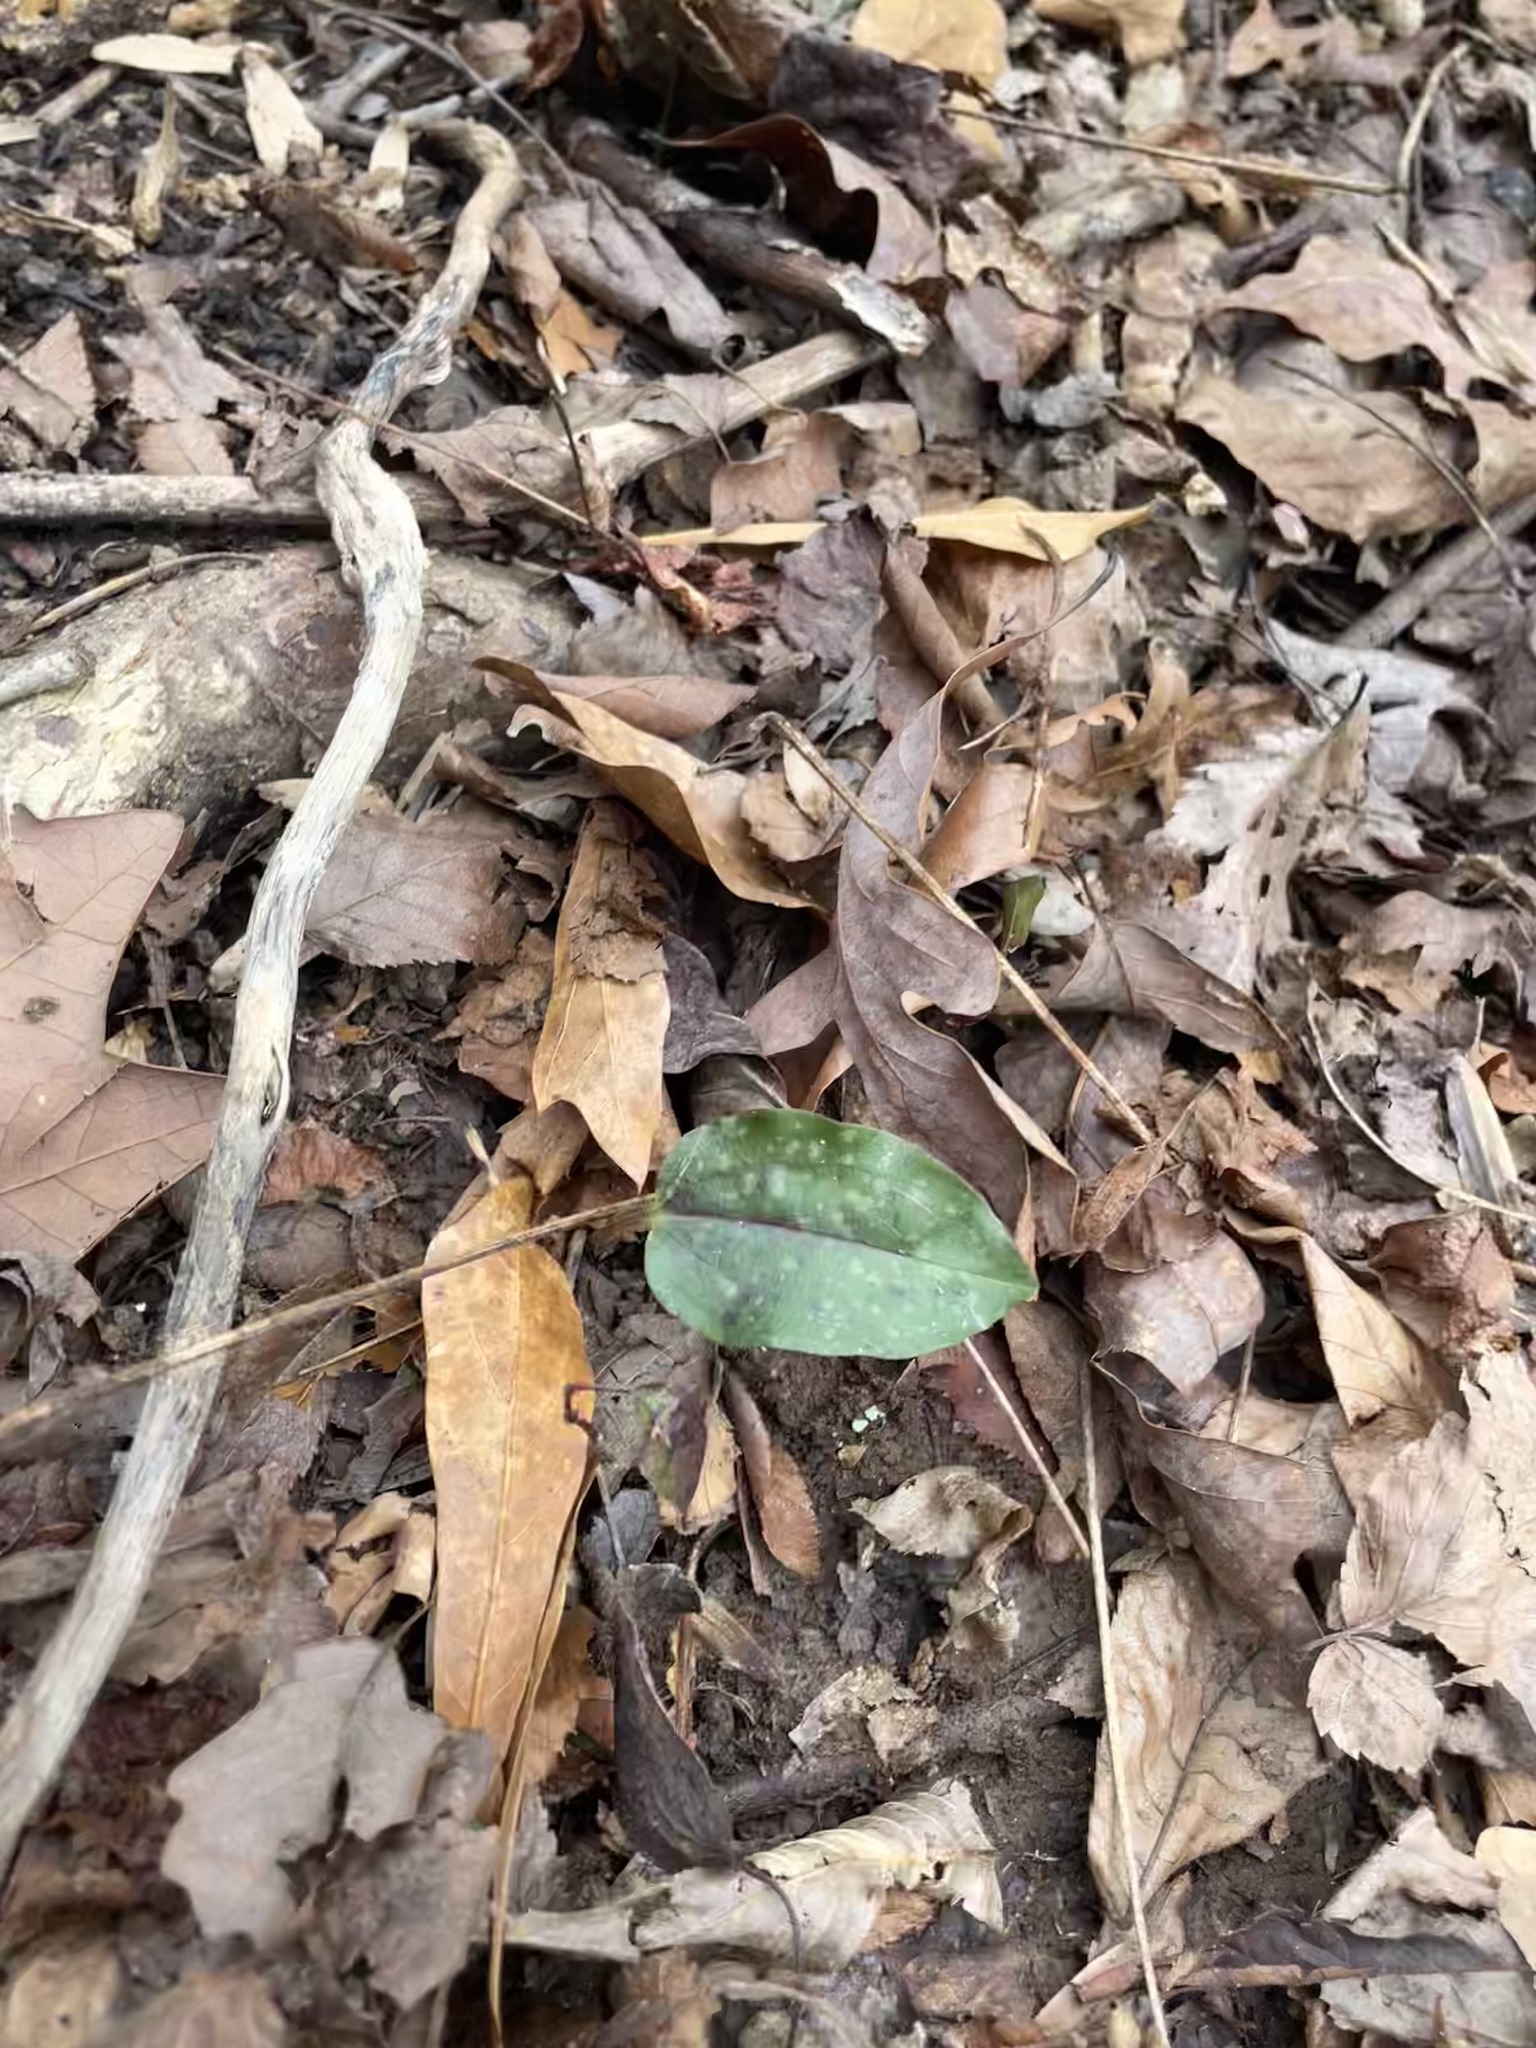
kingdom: Plantae
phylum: Tracheophyta
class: Liliopsida
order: Asparagales
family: Orchidaceae
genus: Tipularia
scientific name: Tipularia discolor
